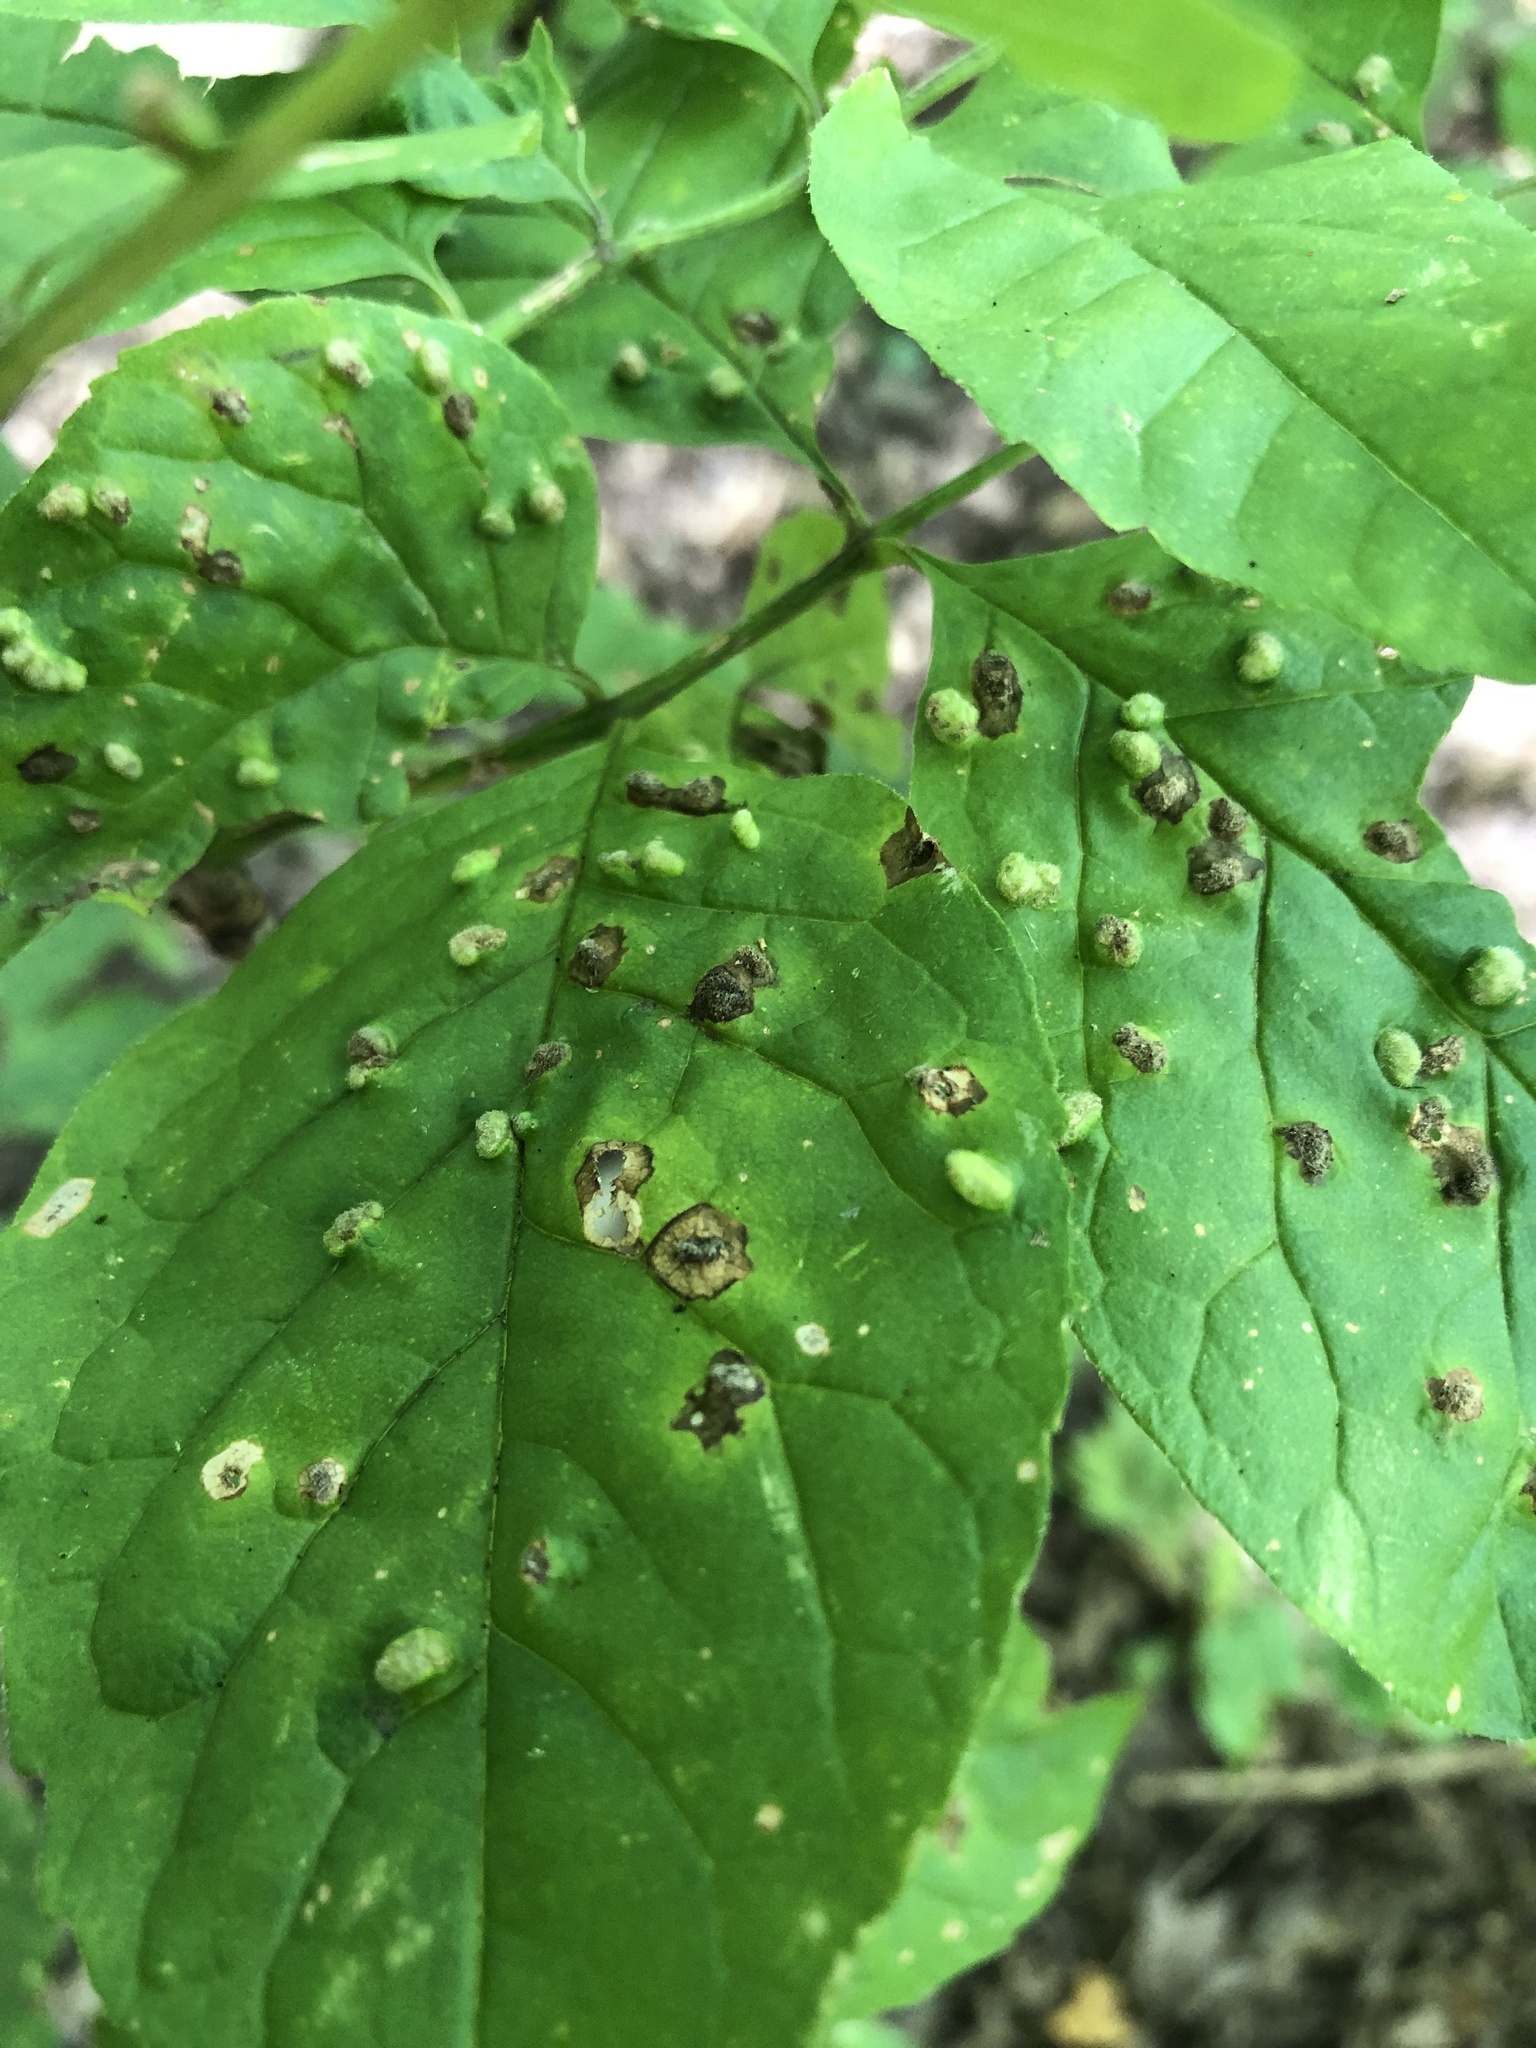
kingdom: Animalia
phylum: Arthropoda
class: Arachnida
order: Trombidiformes
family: Eriophyidae
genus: Aceria
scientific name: Aceria fraxinicola
